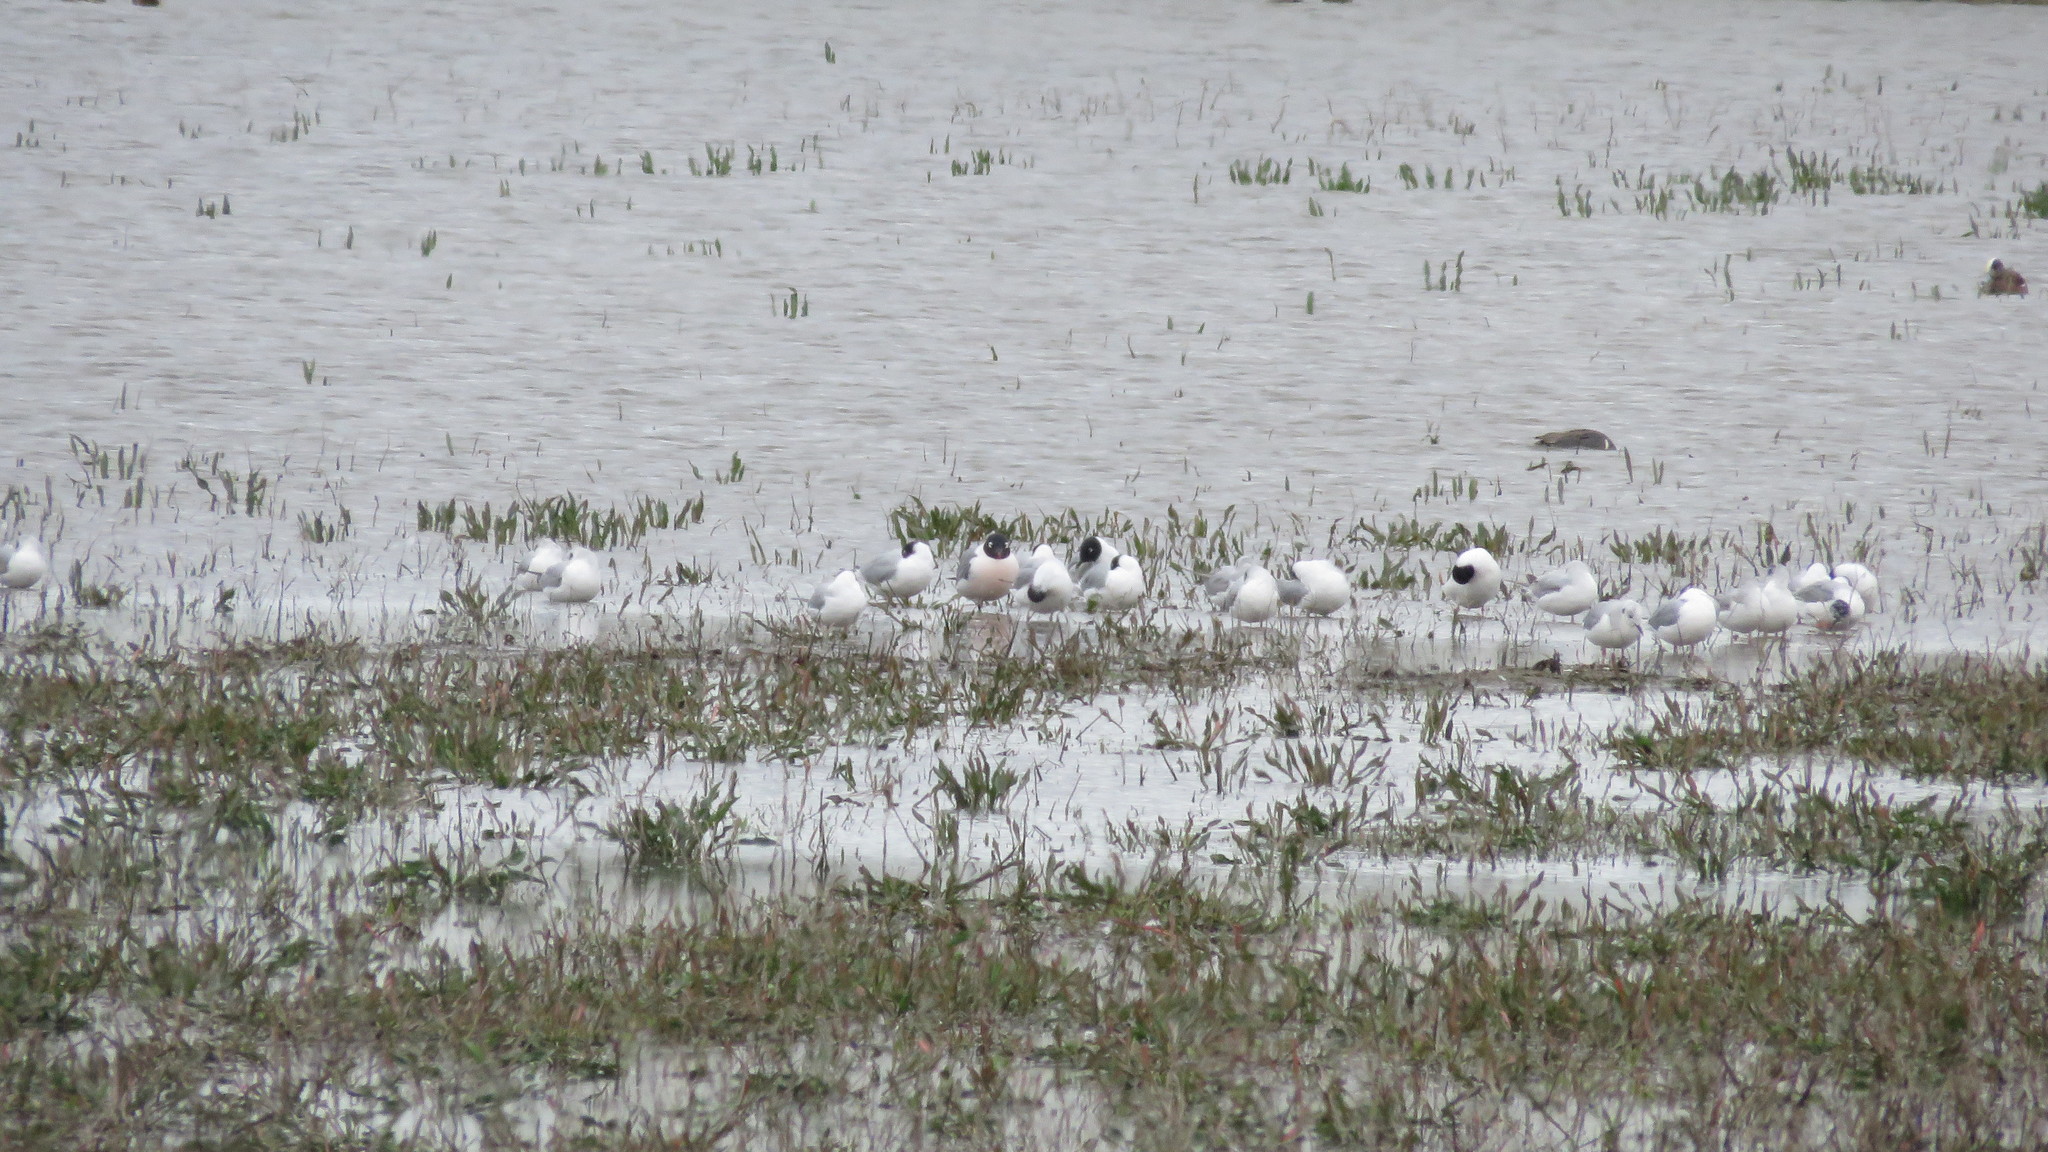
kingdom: Animalia
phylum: Chordata
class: Aves
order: Charadriiformes
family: Laridae
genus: Leucophaeus
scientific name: Leucophaeus pipixcan
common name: Franklin's gull
